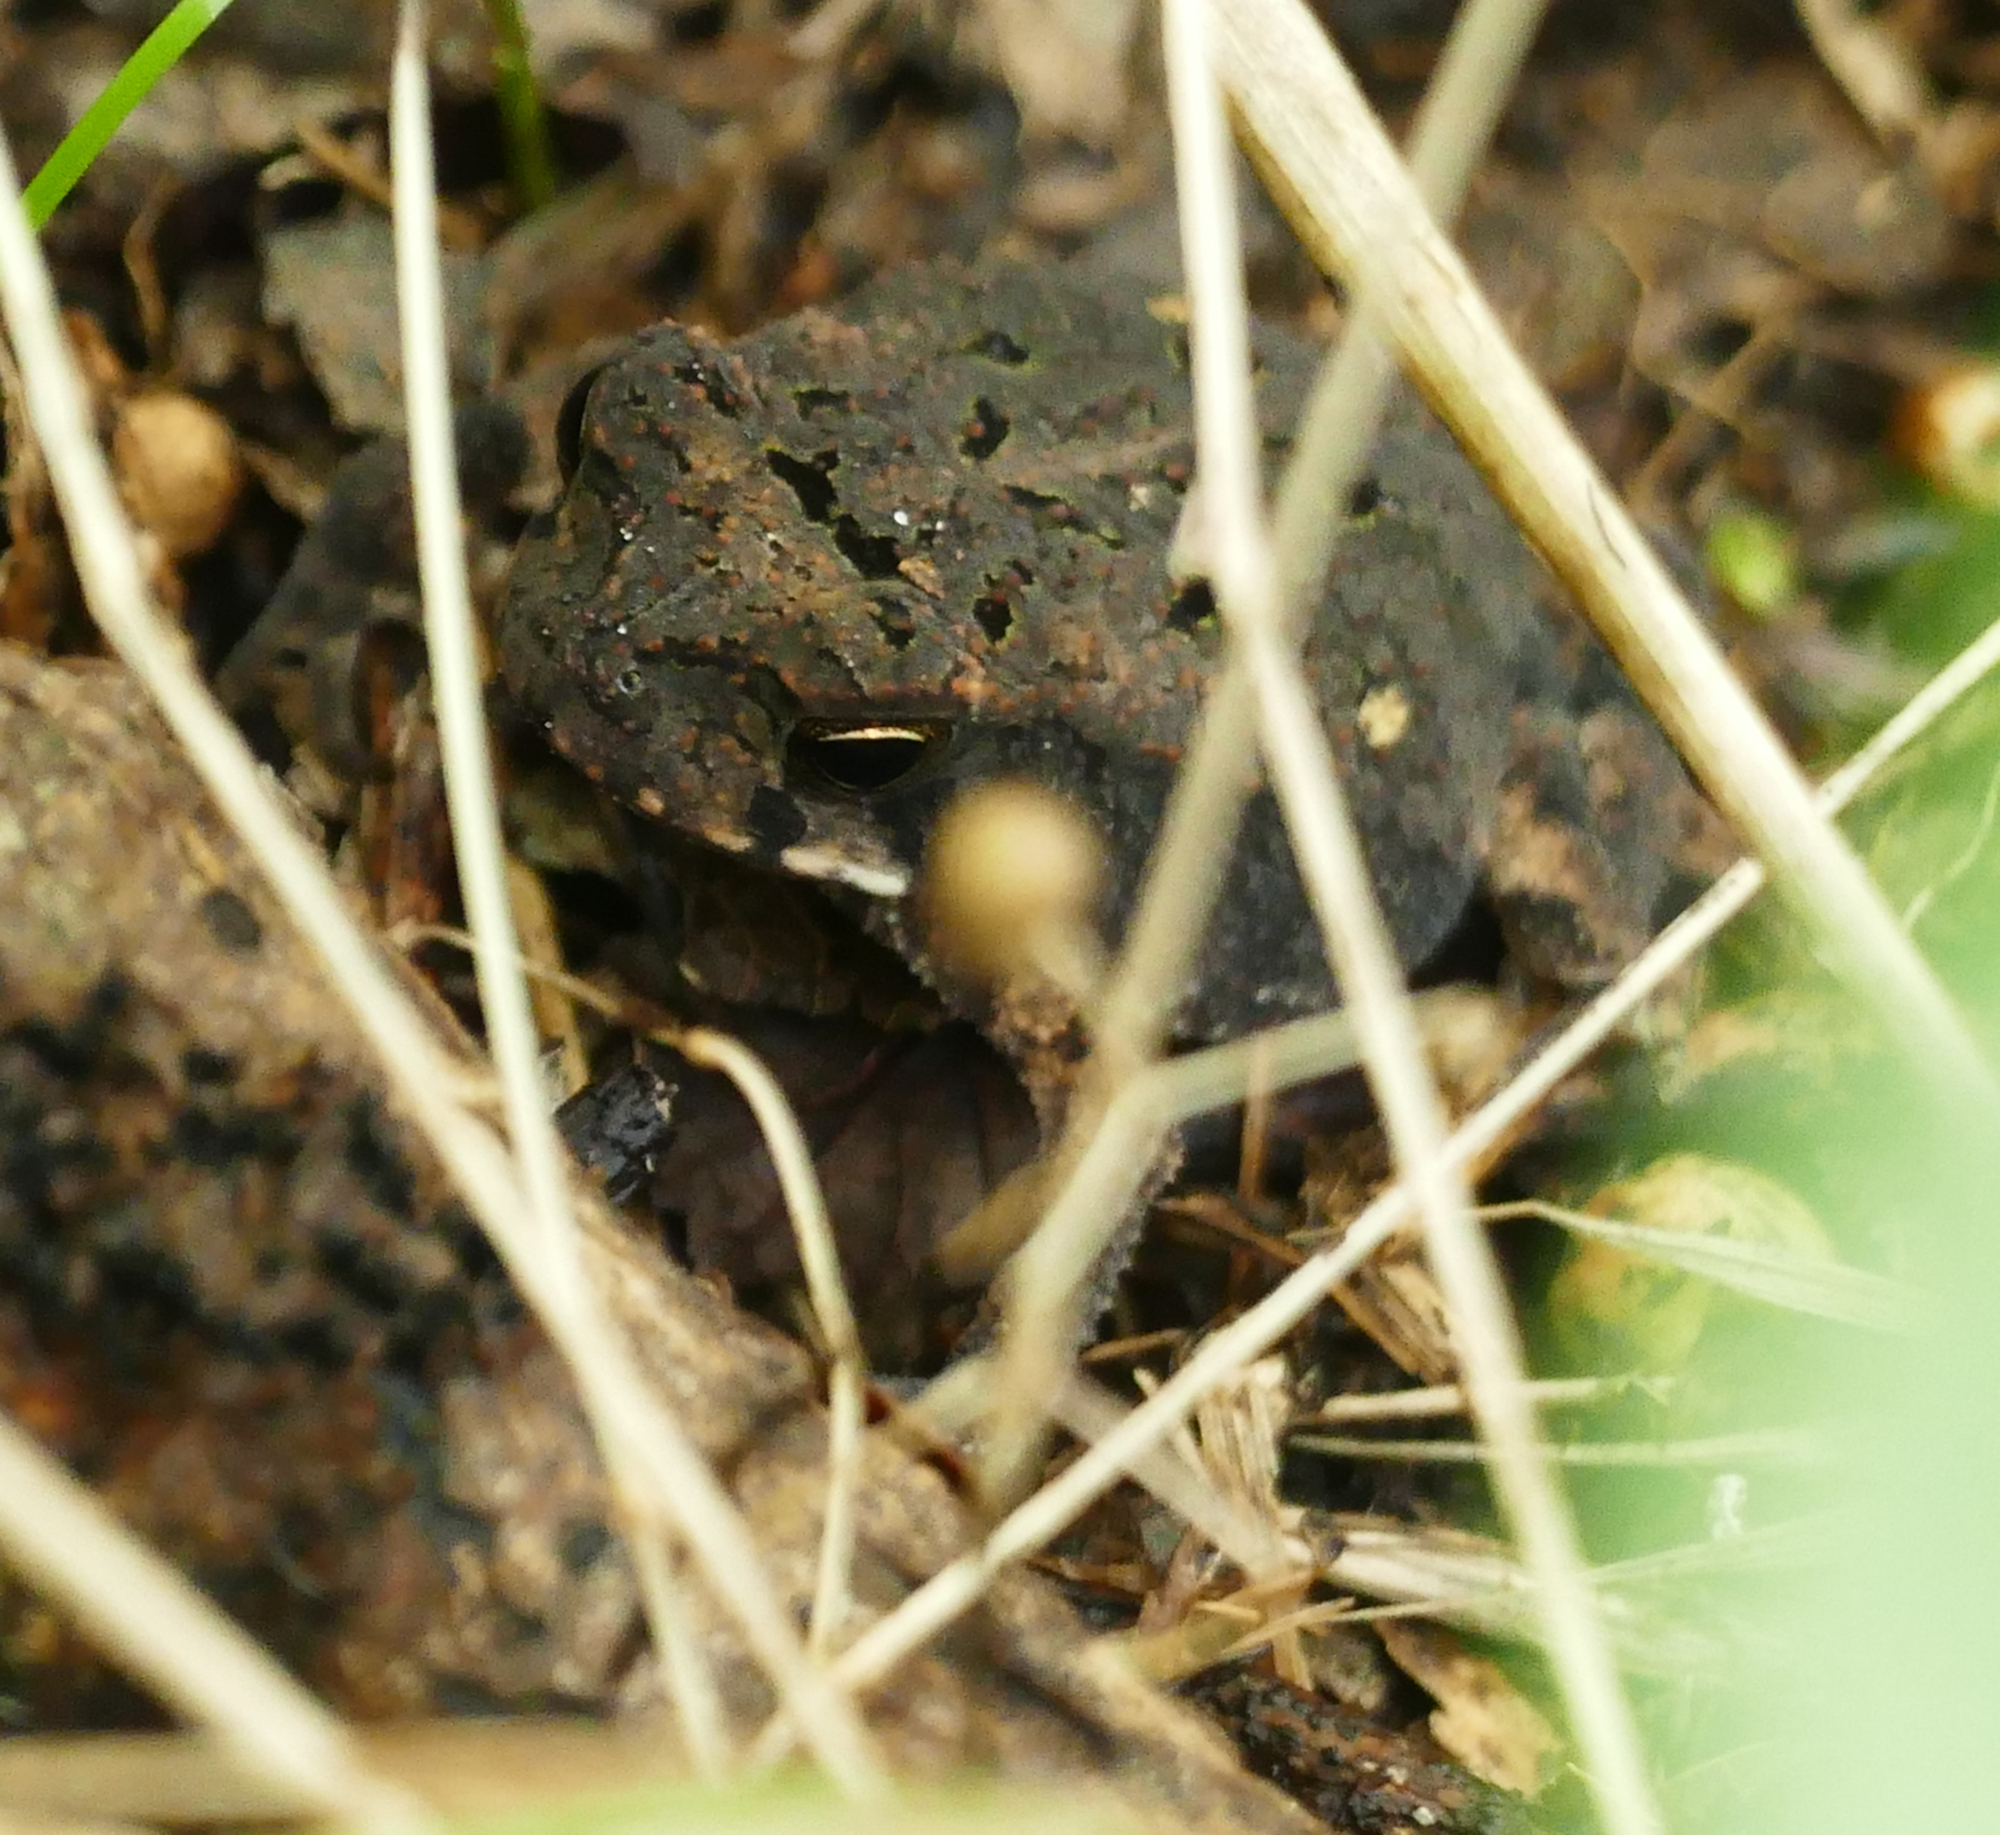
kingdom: Animalia
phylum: Chordata
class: Amphibia
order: Anura
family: Bufonidae
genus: Incilius
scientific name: Incilius nebulifer
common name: Gulf coast toad
